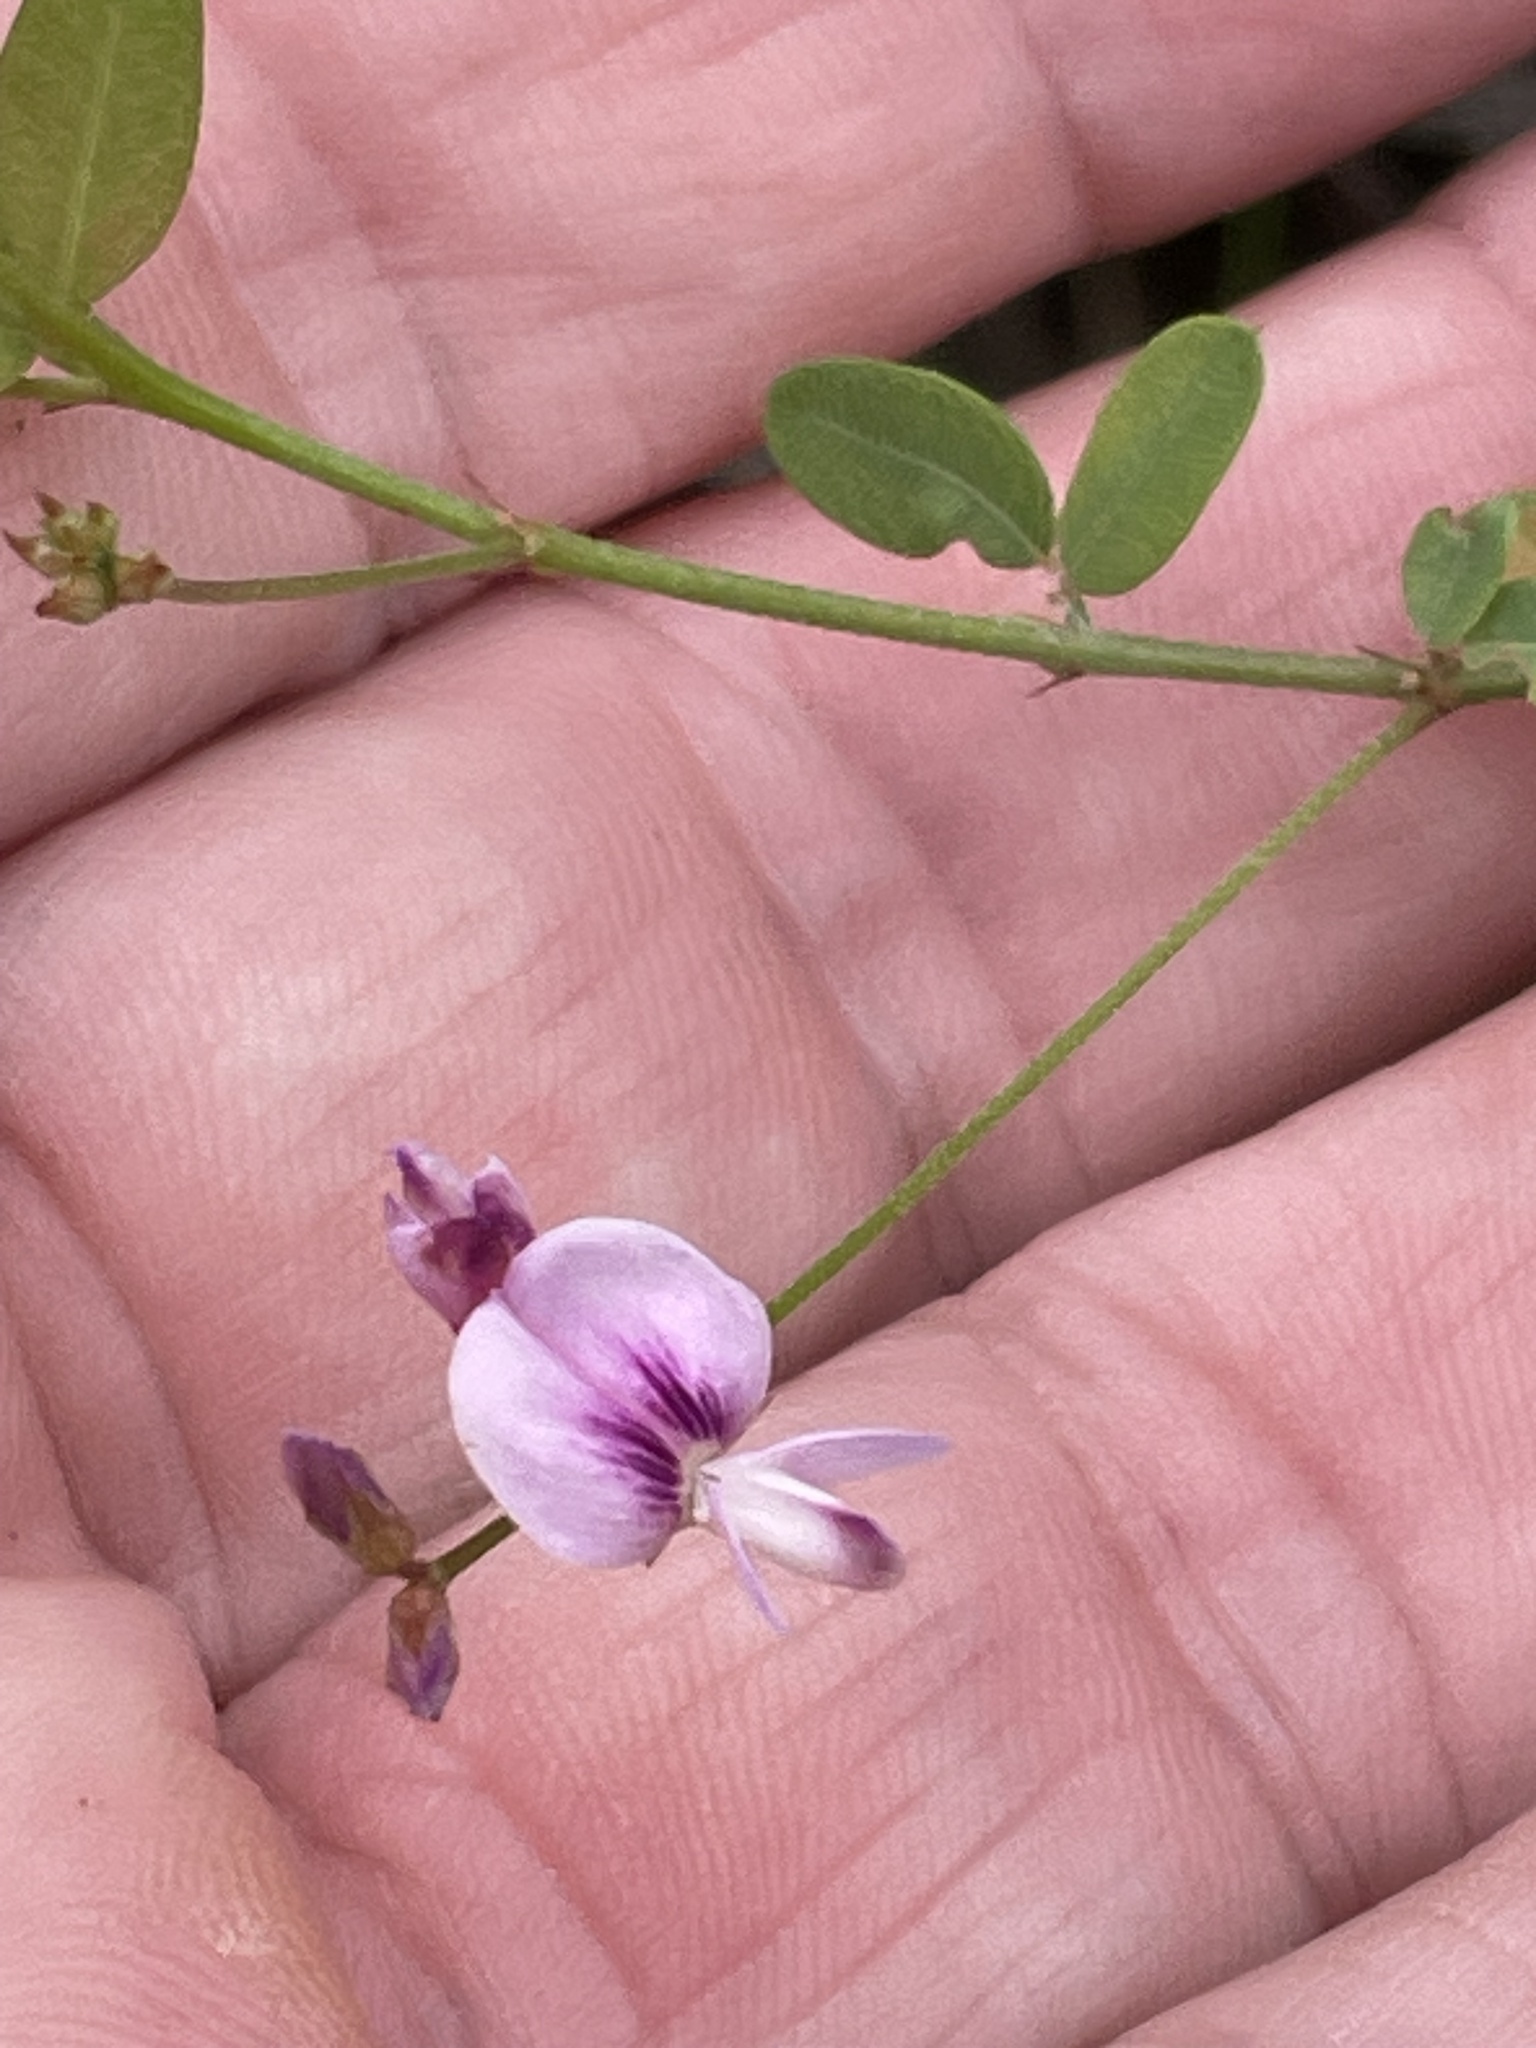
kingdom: Plantae
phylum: Tracheophyta
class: Magnoliopsida
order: Fabales
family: Fabaceae
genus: Lespedeza
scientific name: Lespedeza repens
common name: Creeping bush-clover
